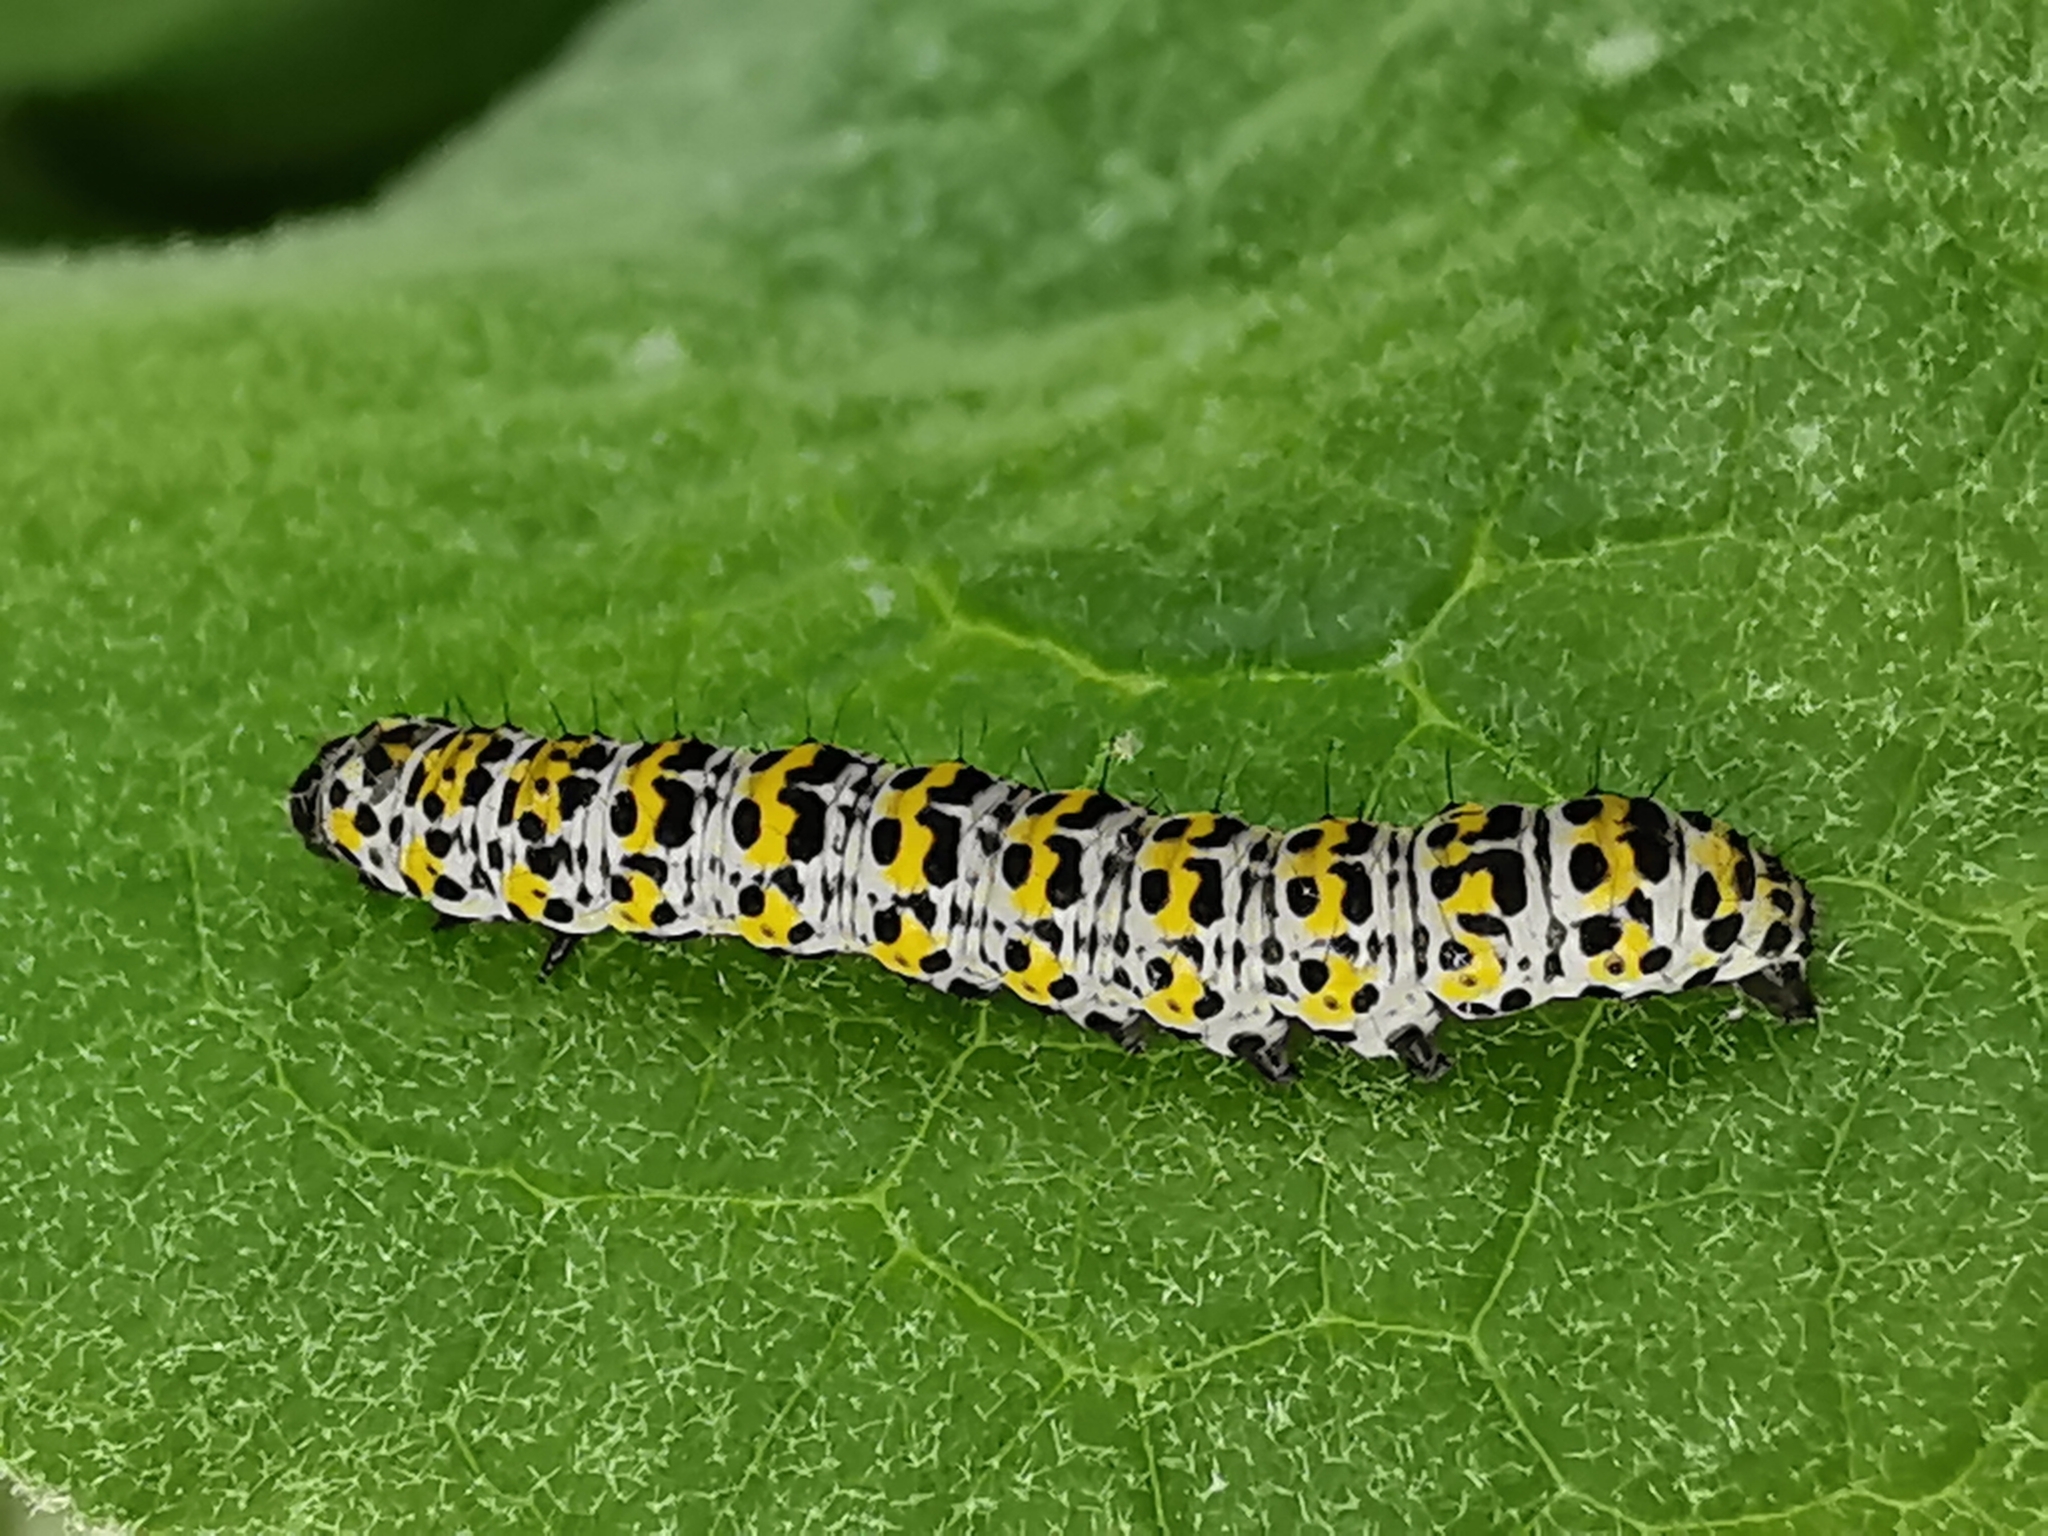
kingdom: Animalia
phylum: Arthropoda
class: Insecta
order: Lepidoptera
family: Noctuidae
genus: Cucullia
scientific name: Cucullia verbasci
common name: Mullein
